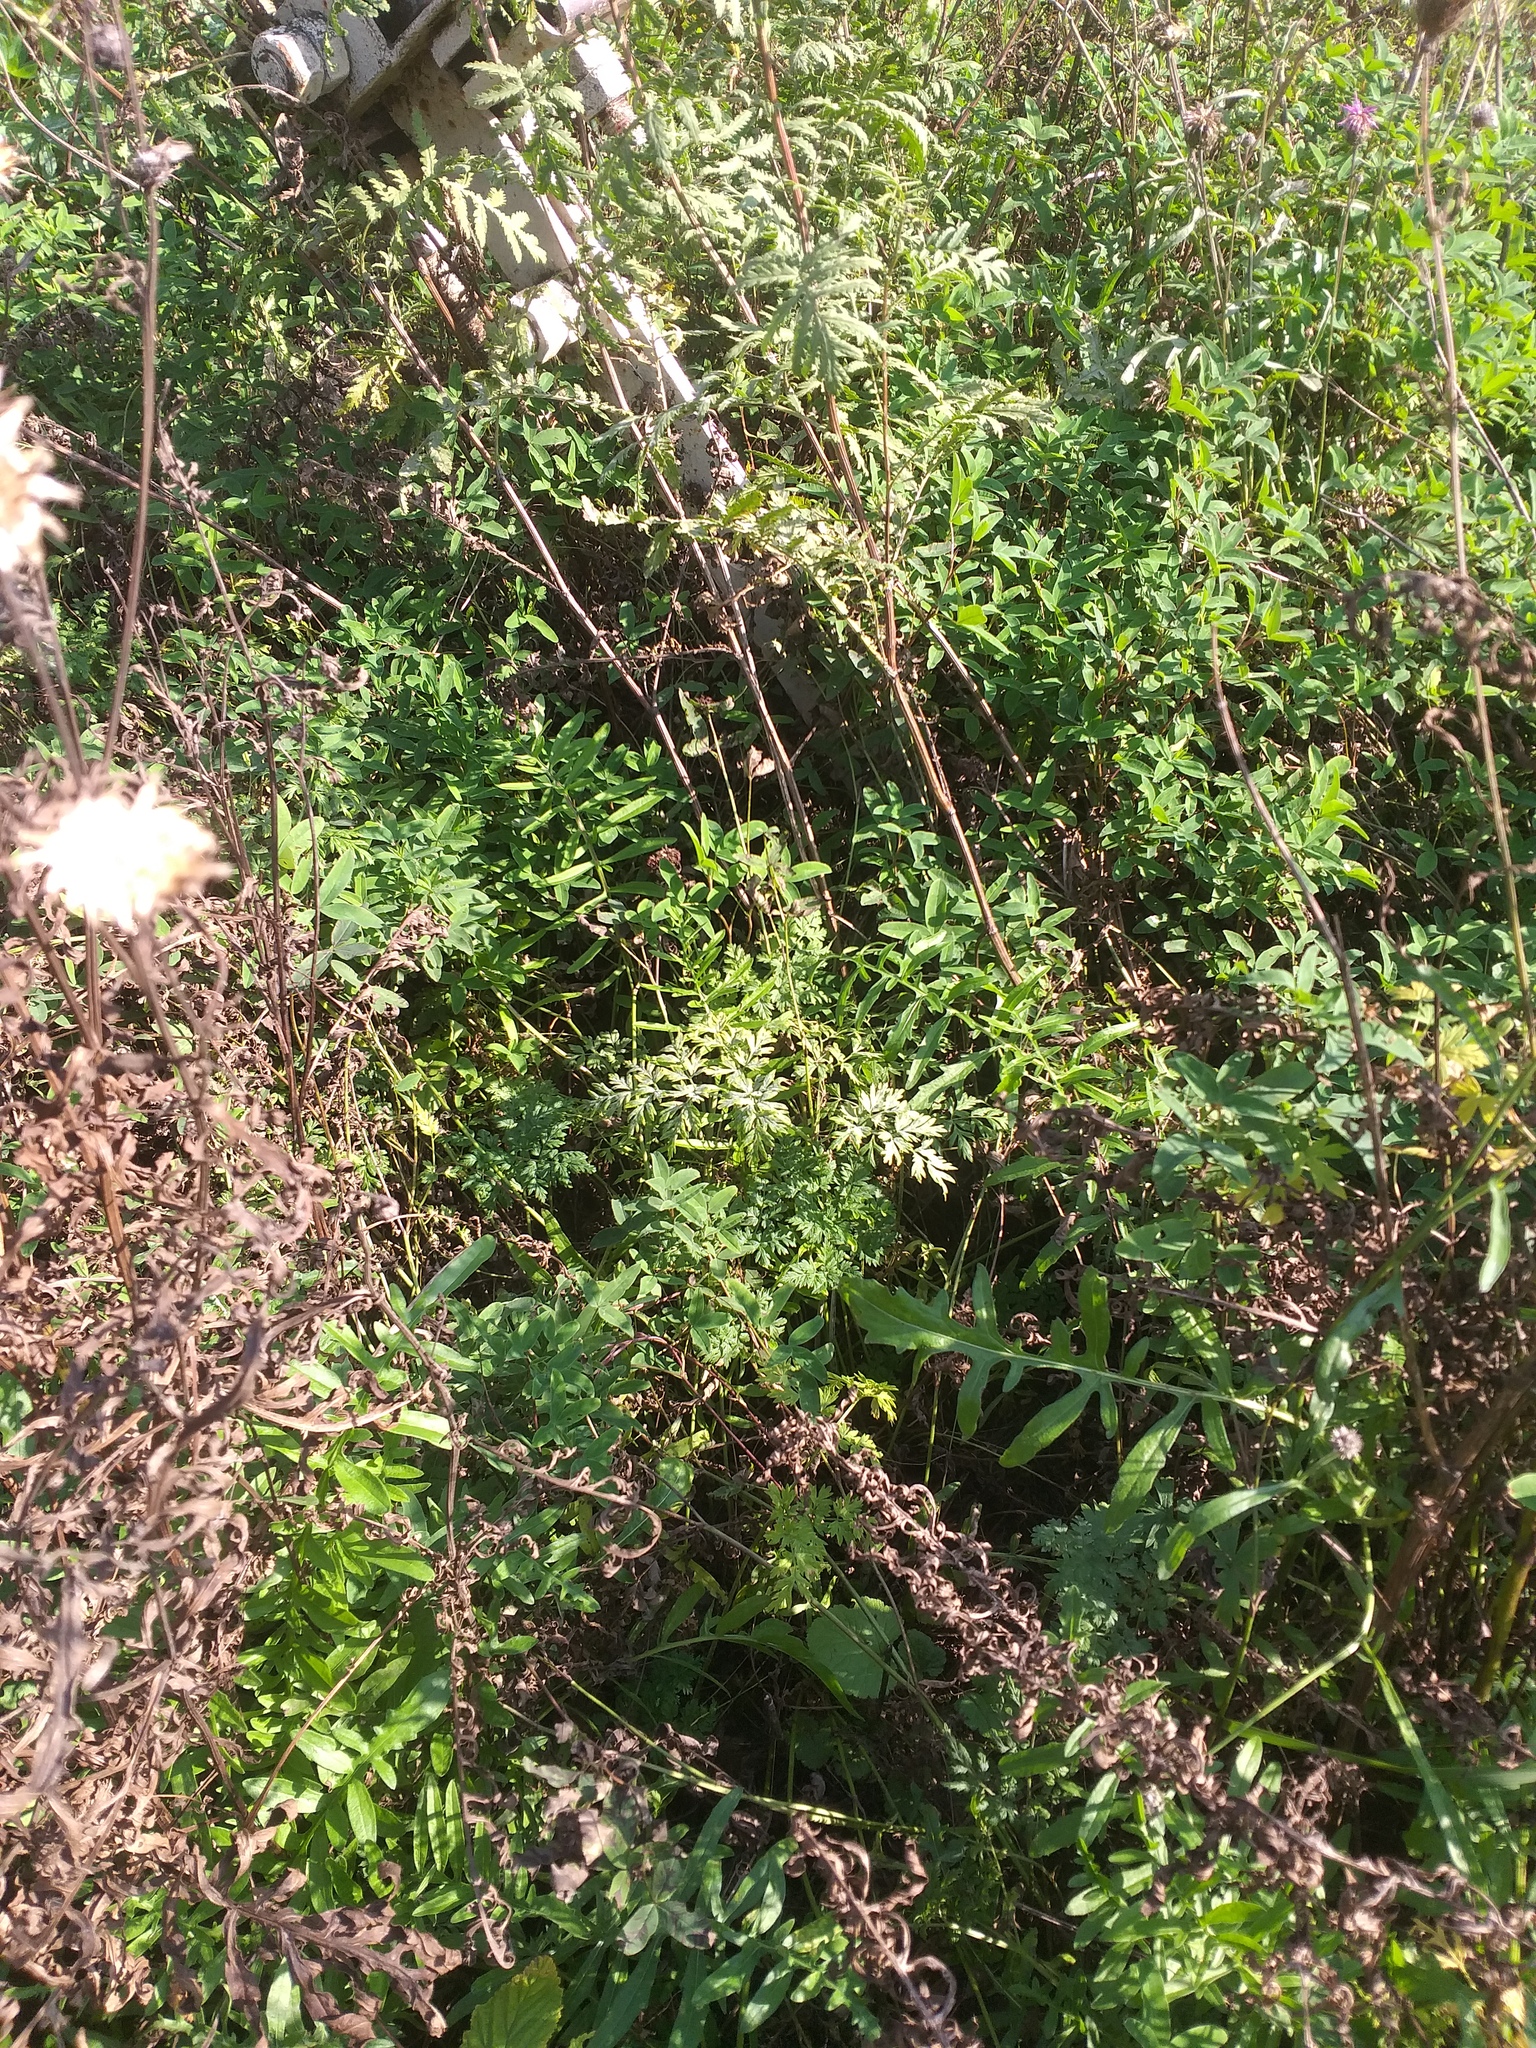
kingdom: Plantae
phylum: Tracheophyta
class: Magnoliopsida
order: Apiales
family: Apiaceae
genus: Anthriscus
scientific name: Anthriscus sylvestris
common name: Cow parsley
